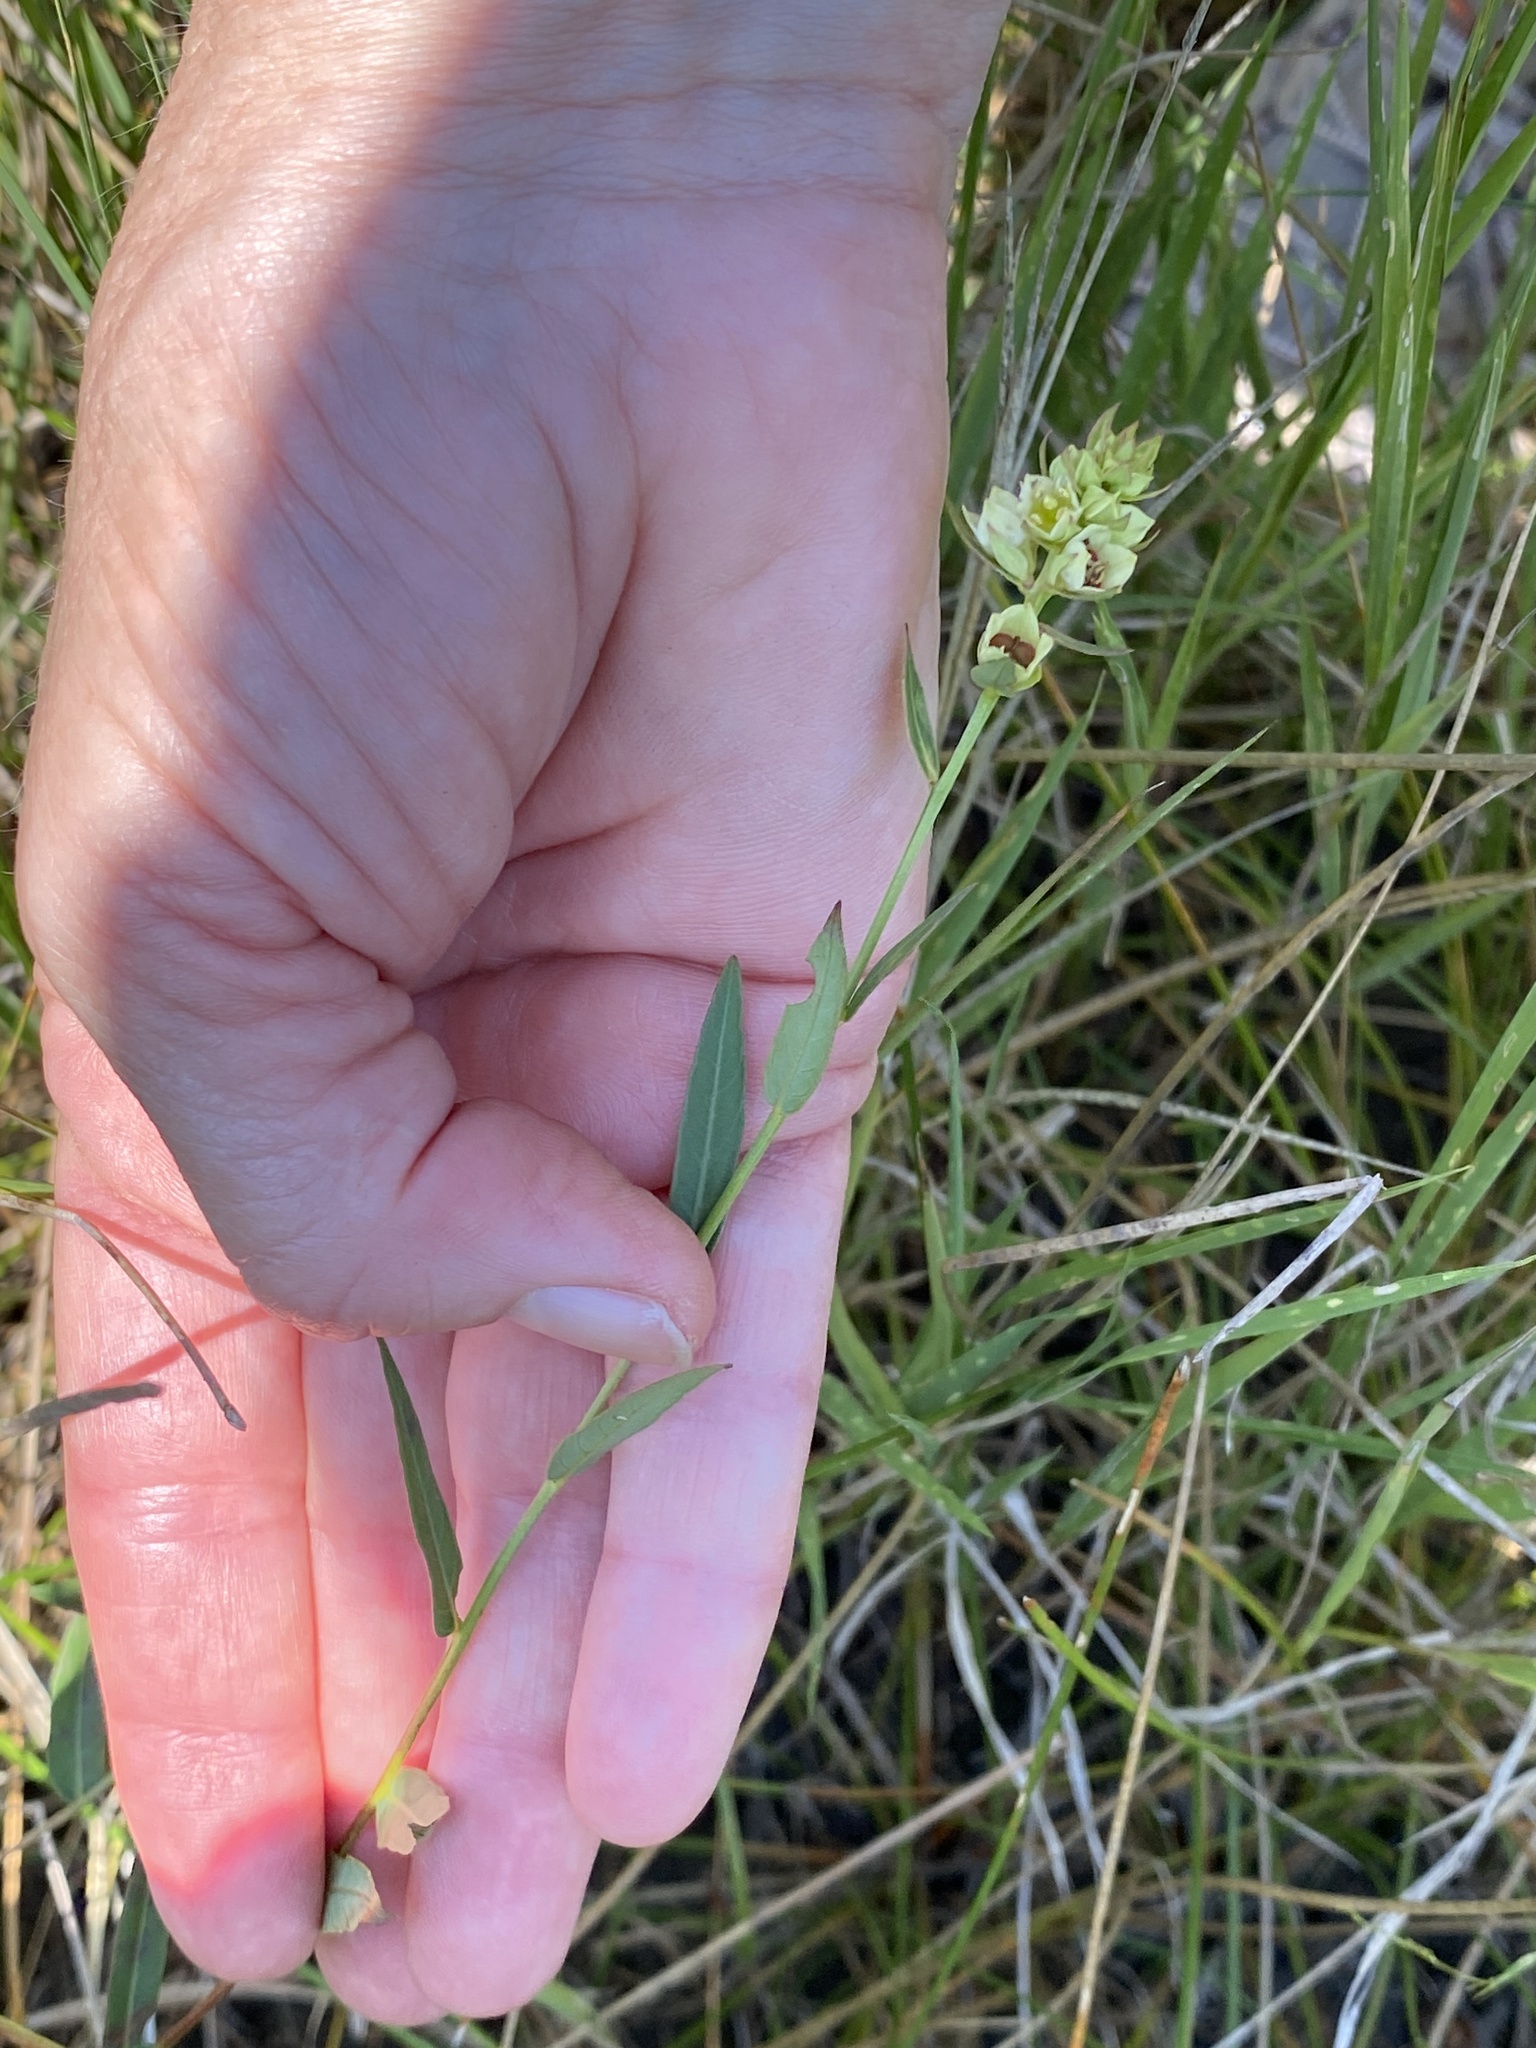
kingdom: Plantae
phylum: Tracheophyta
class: Magnoliopsida
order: Myrtales
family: Onagraceae
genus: Ludwigia
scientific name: Ludwigia suffruticosa
